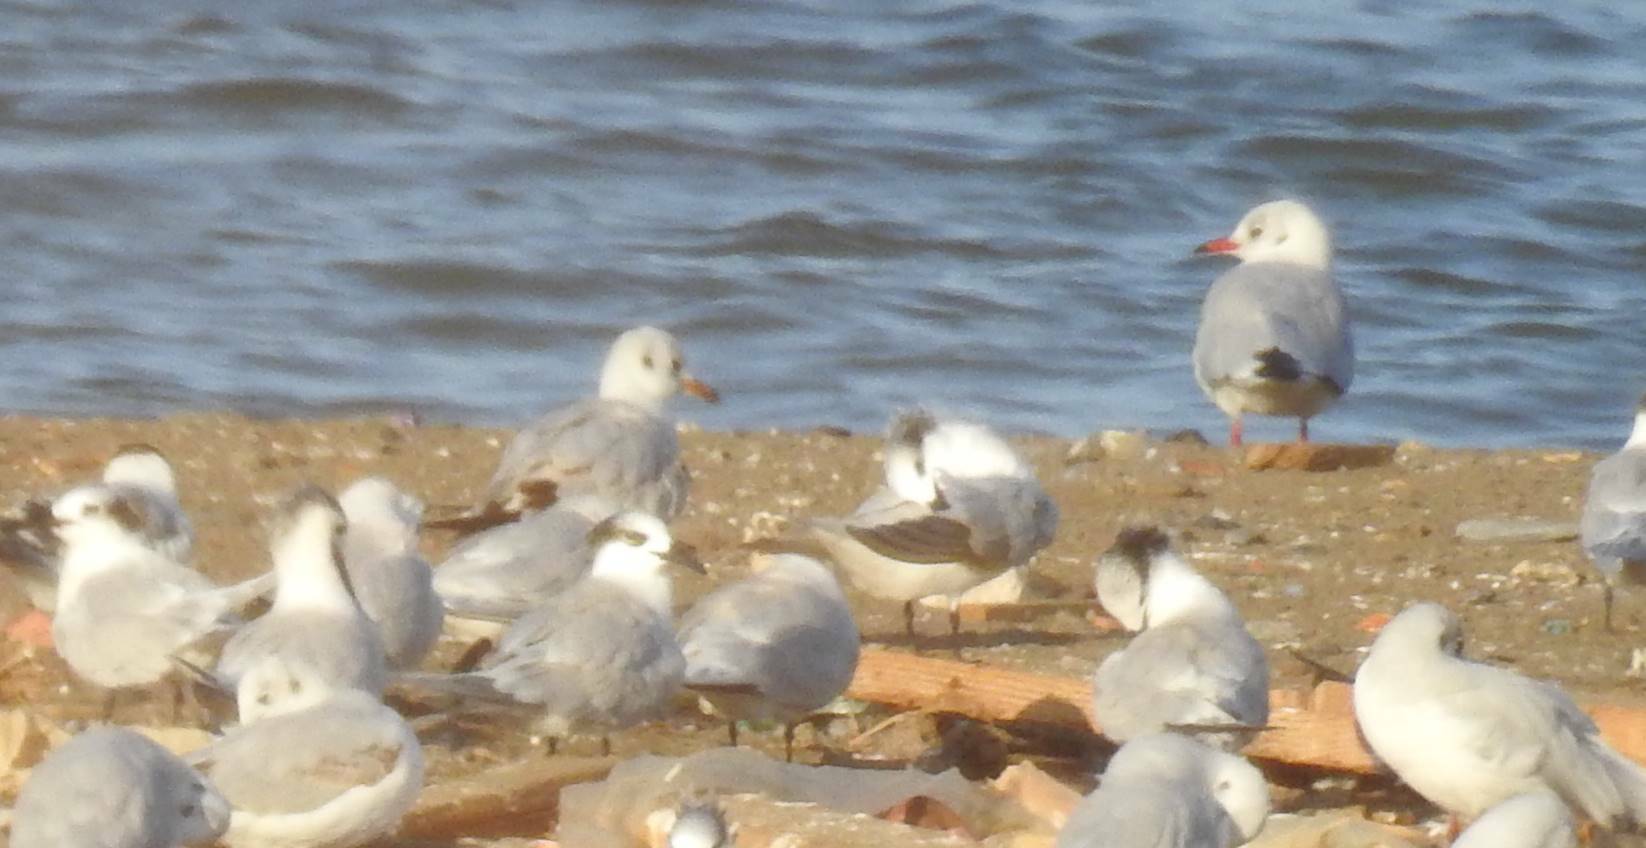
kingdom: Animalia
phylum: Chordata
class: Aves
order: Charadriiformes
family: Laridae
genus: Chroicocephalus
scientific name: Chroicocephalus ridibundus
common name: Black-headed gull
